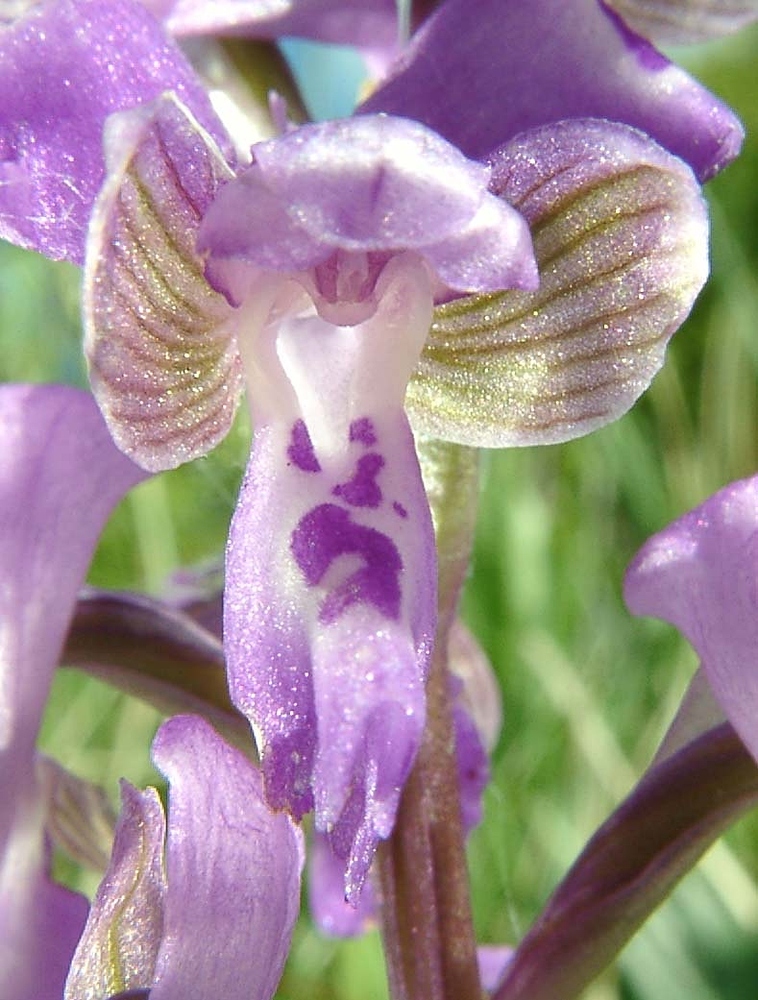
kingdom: Plantae
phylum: Tracheophyta
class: Liliopsida
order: Asparagales
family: Orchidaceae
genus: Anacamptis
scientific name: Anacamptis morio
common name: Green-winged orchid
